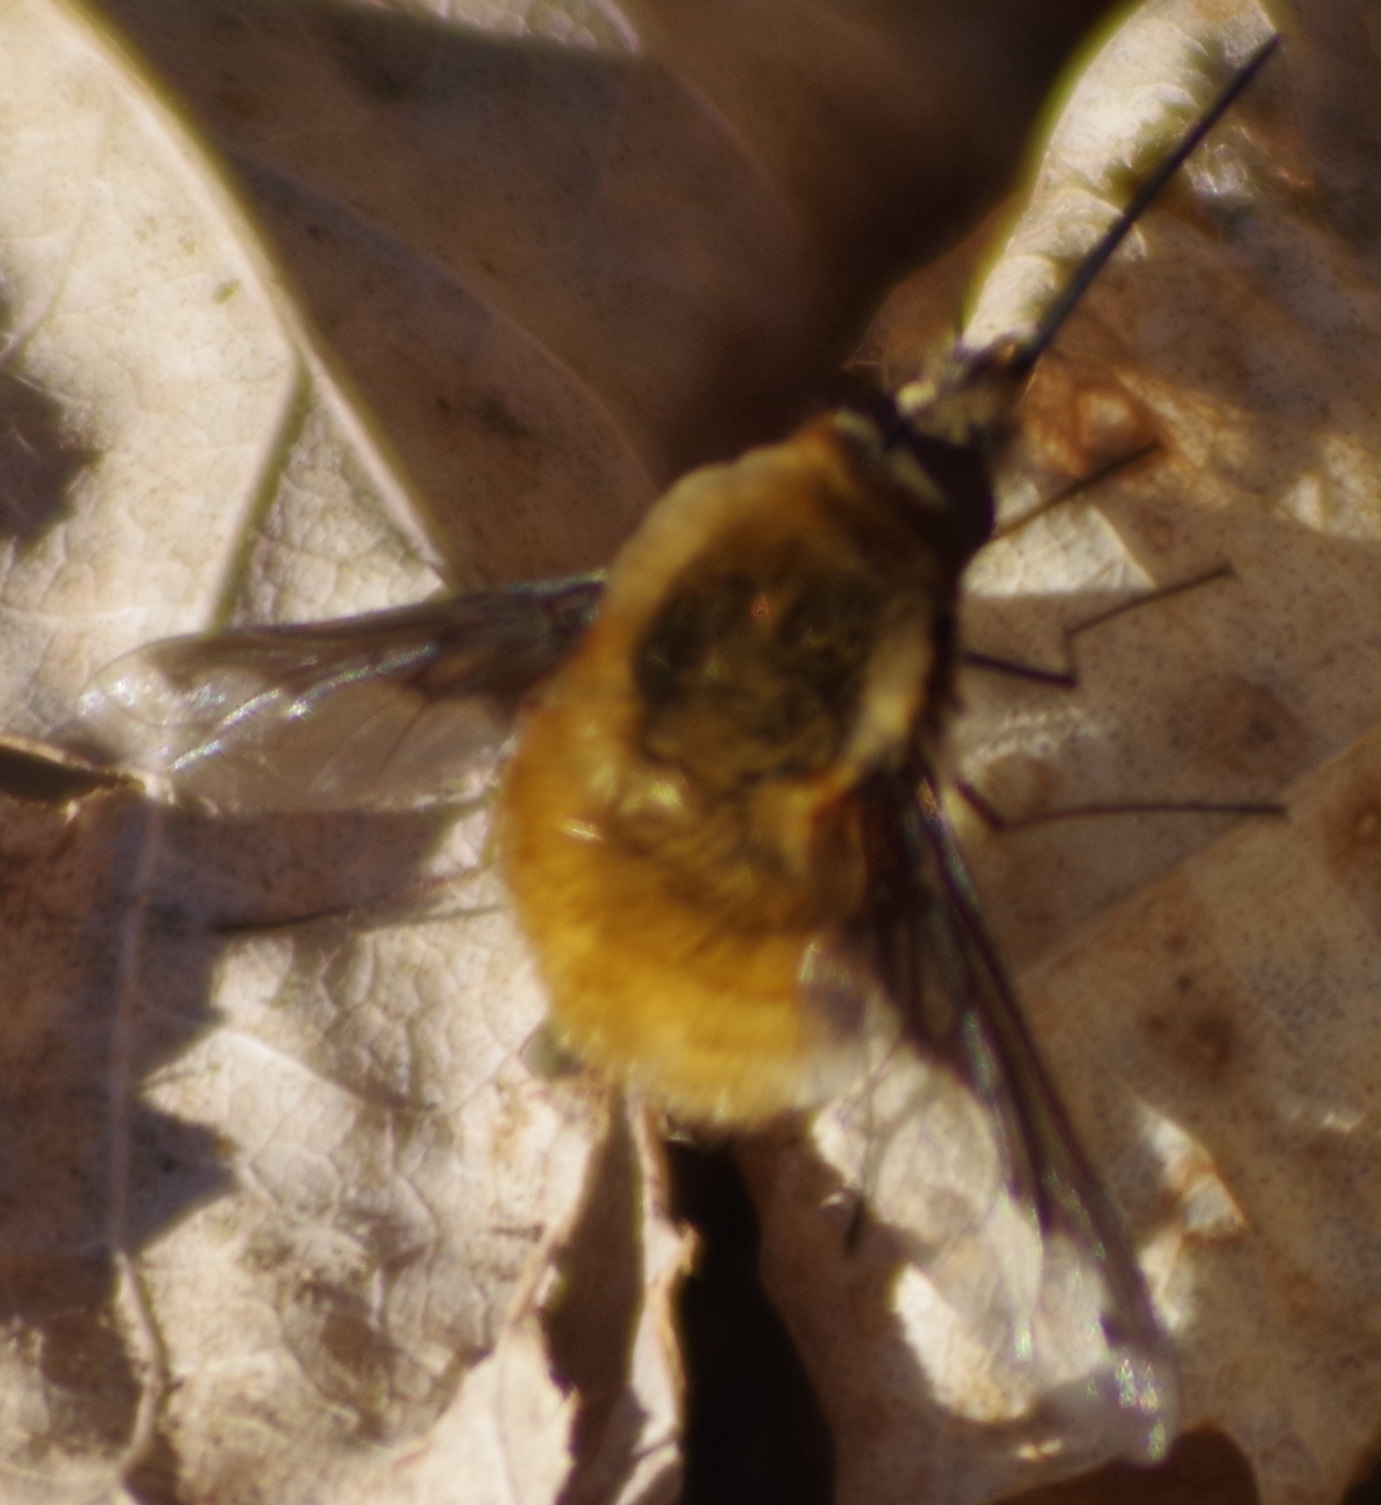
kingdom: Animalia
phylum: Arthropoda
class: Insecta
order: Diptera
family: Bombyliidae
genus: Bombylius
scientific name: Bombylius major
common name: Bee fly
